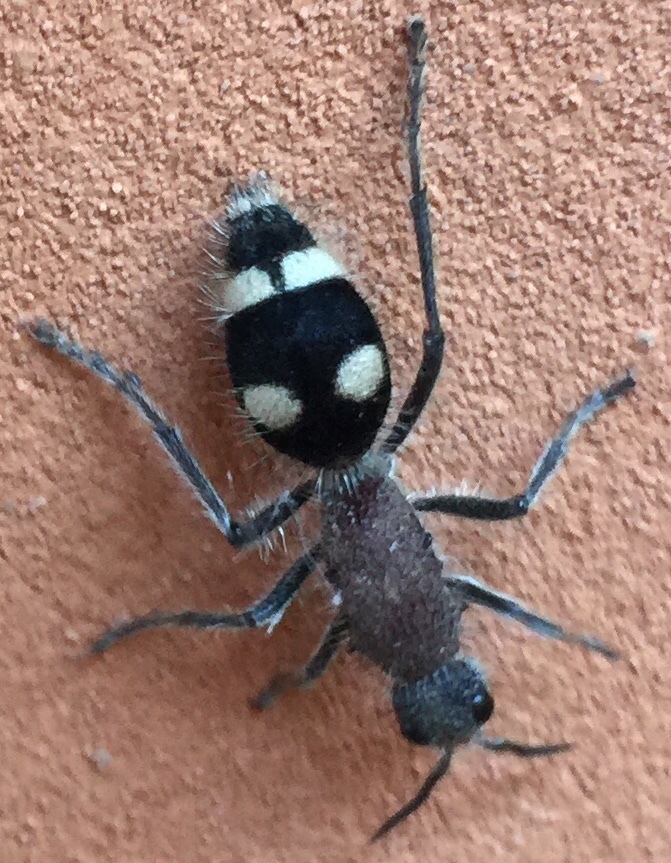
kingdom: Animalia
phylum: Arthropoda
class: Insecta
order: Hymenoptera
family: Mutillidae
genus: Dolichomutilla
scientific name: Dolichomutilla
